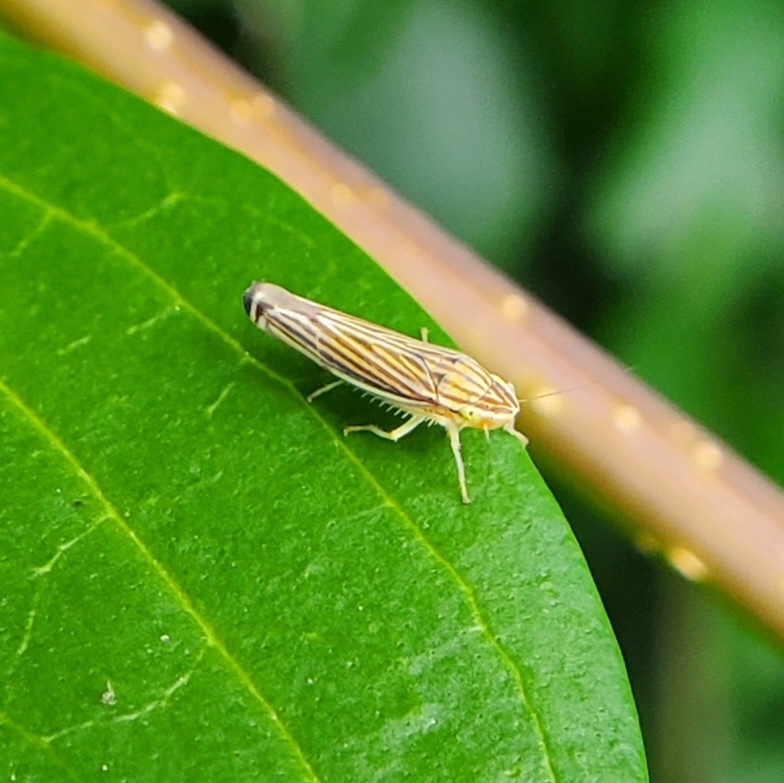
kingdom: Animalia
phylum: Arthropoda
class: Insecta
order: Hemiptera
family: Cicadellidae
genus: Sibovia
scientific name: Sibovia occatoria
